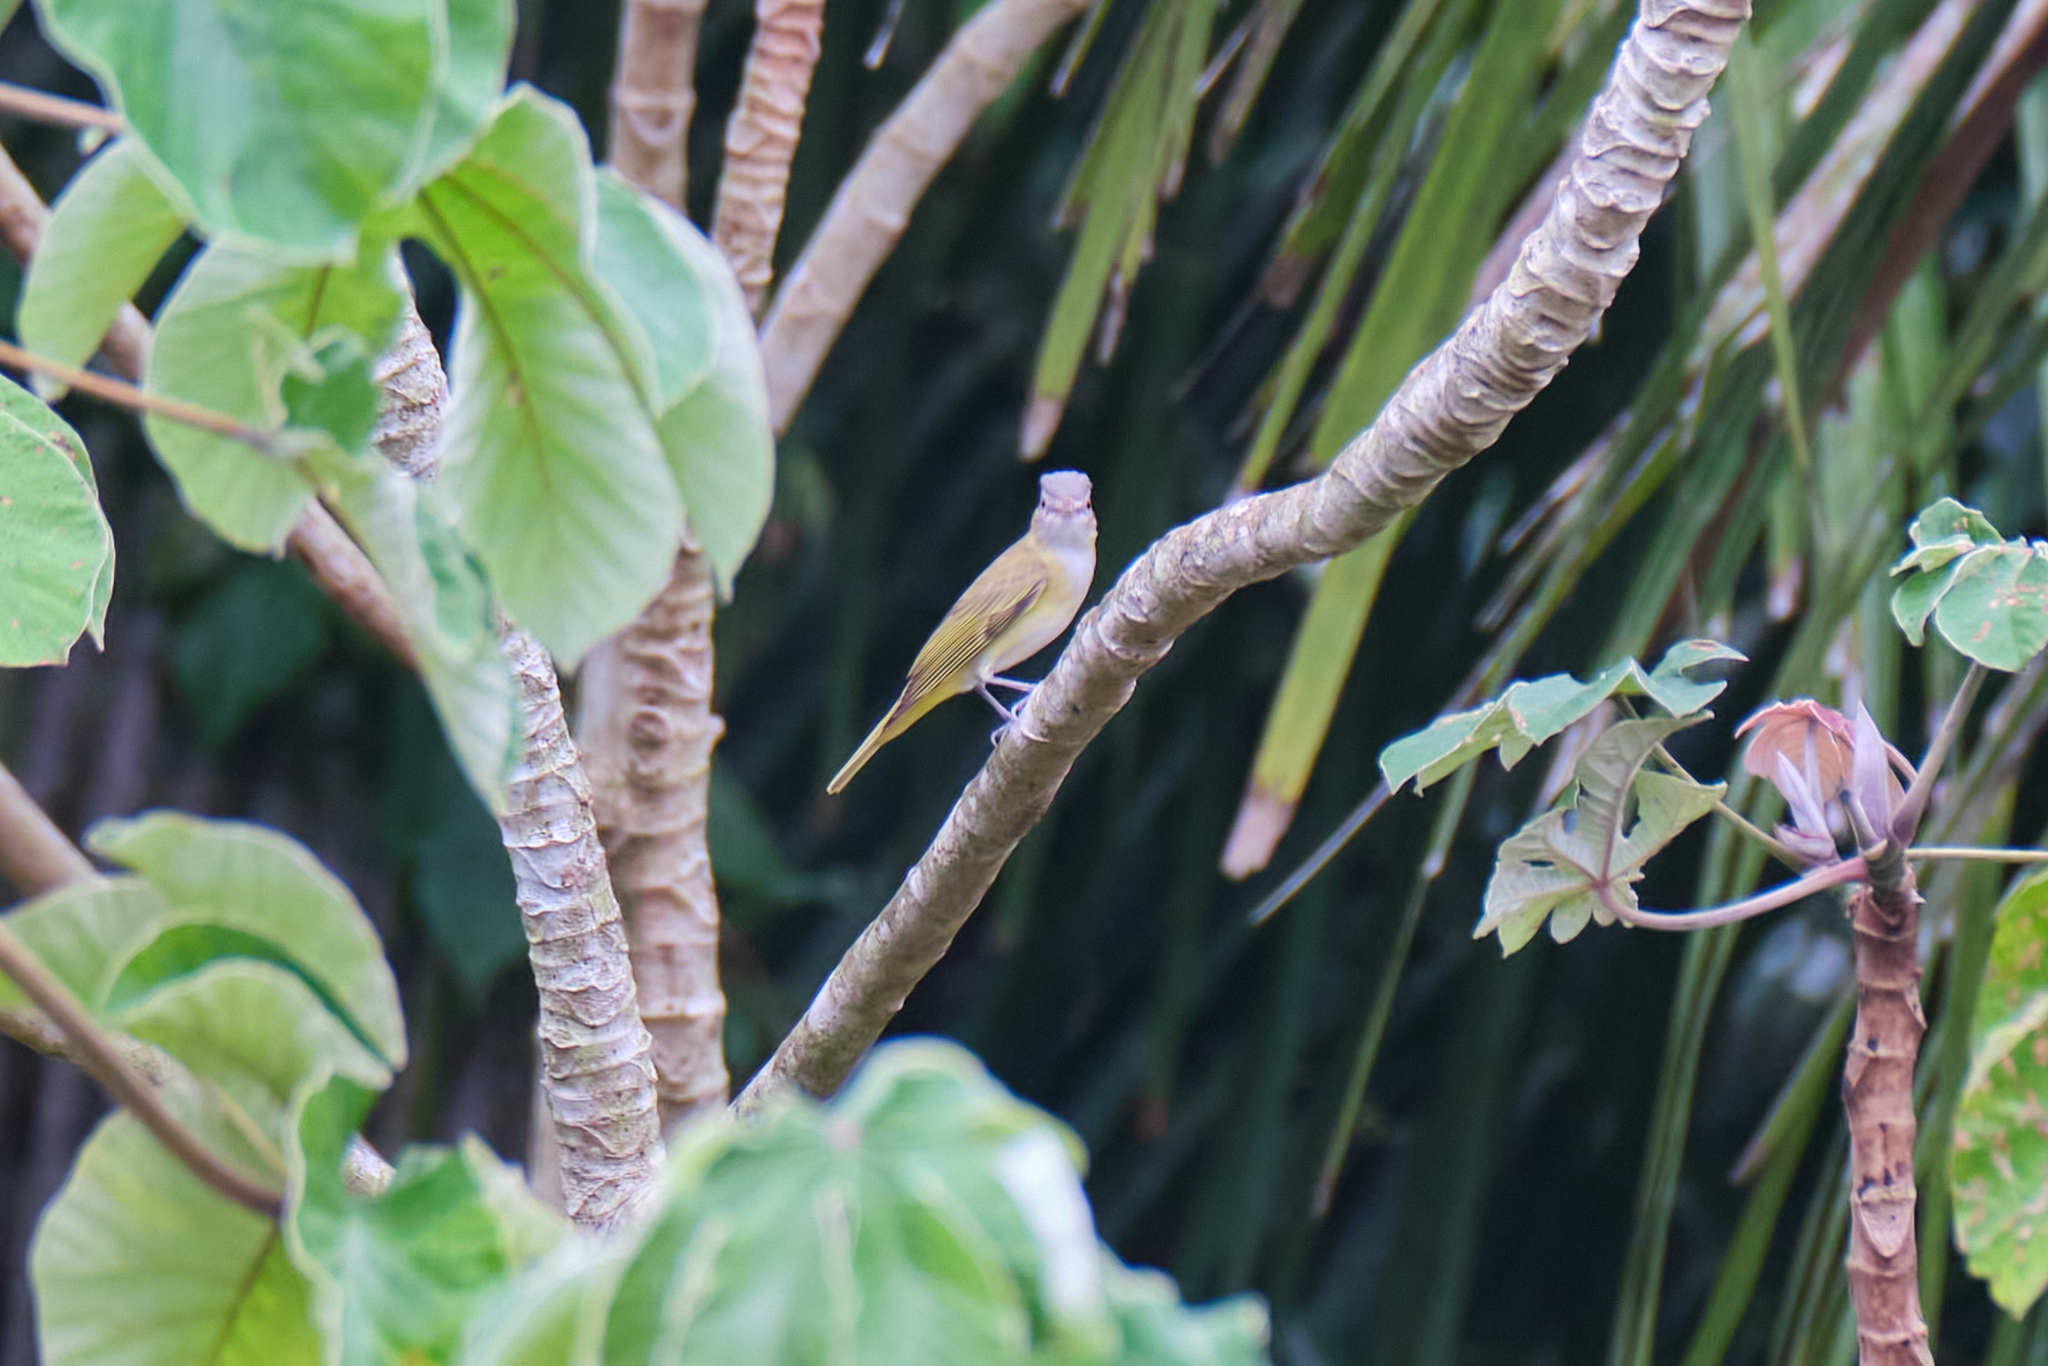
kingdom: Animalia
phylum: Chordata
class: Aves
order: Passeriformes
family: Vireonidae
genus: Vireo
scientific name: Vireo flavoviridis
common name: Yellow-green vireo
